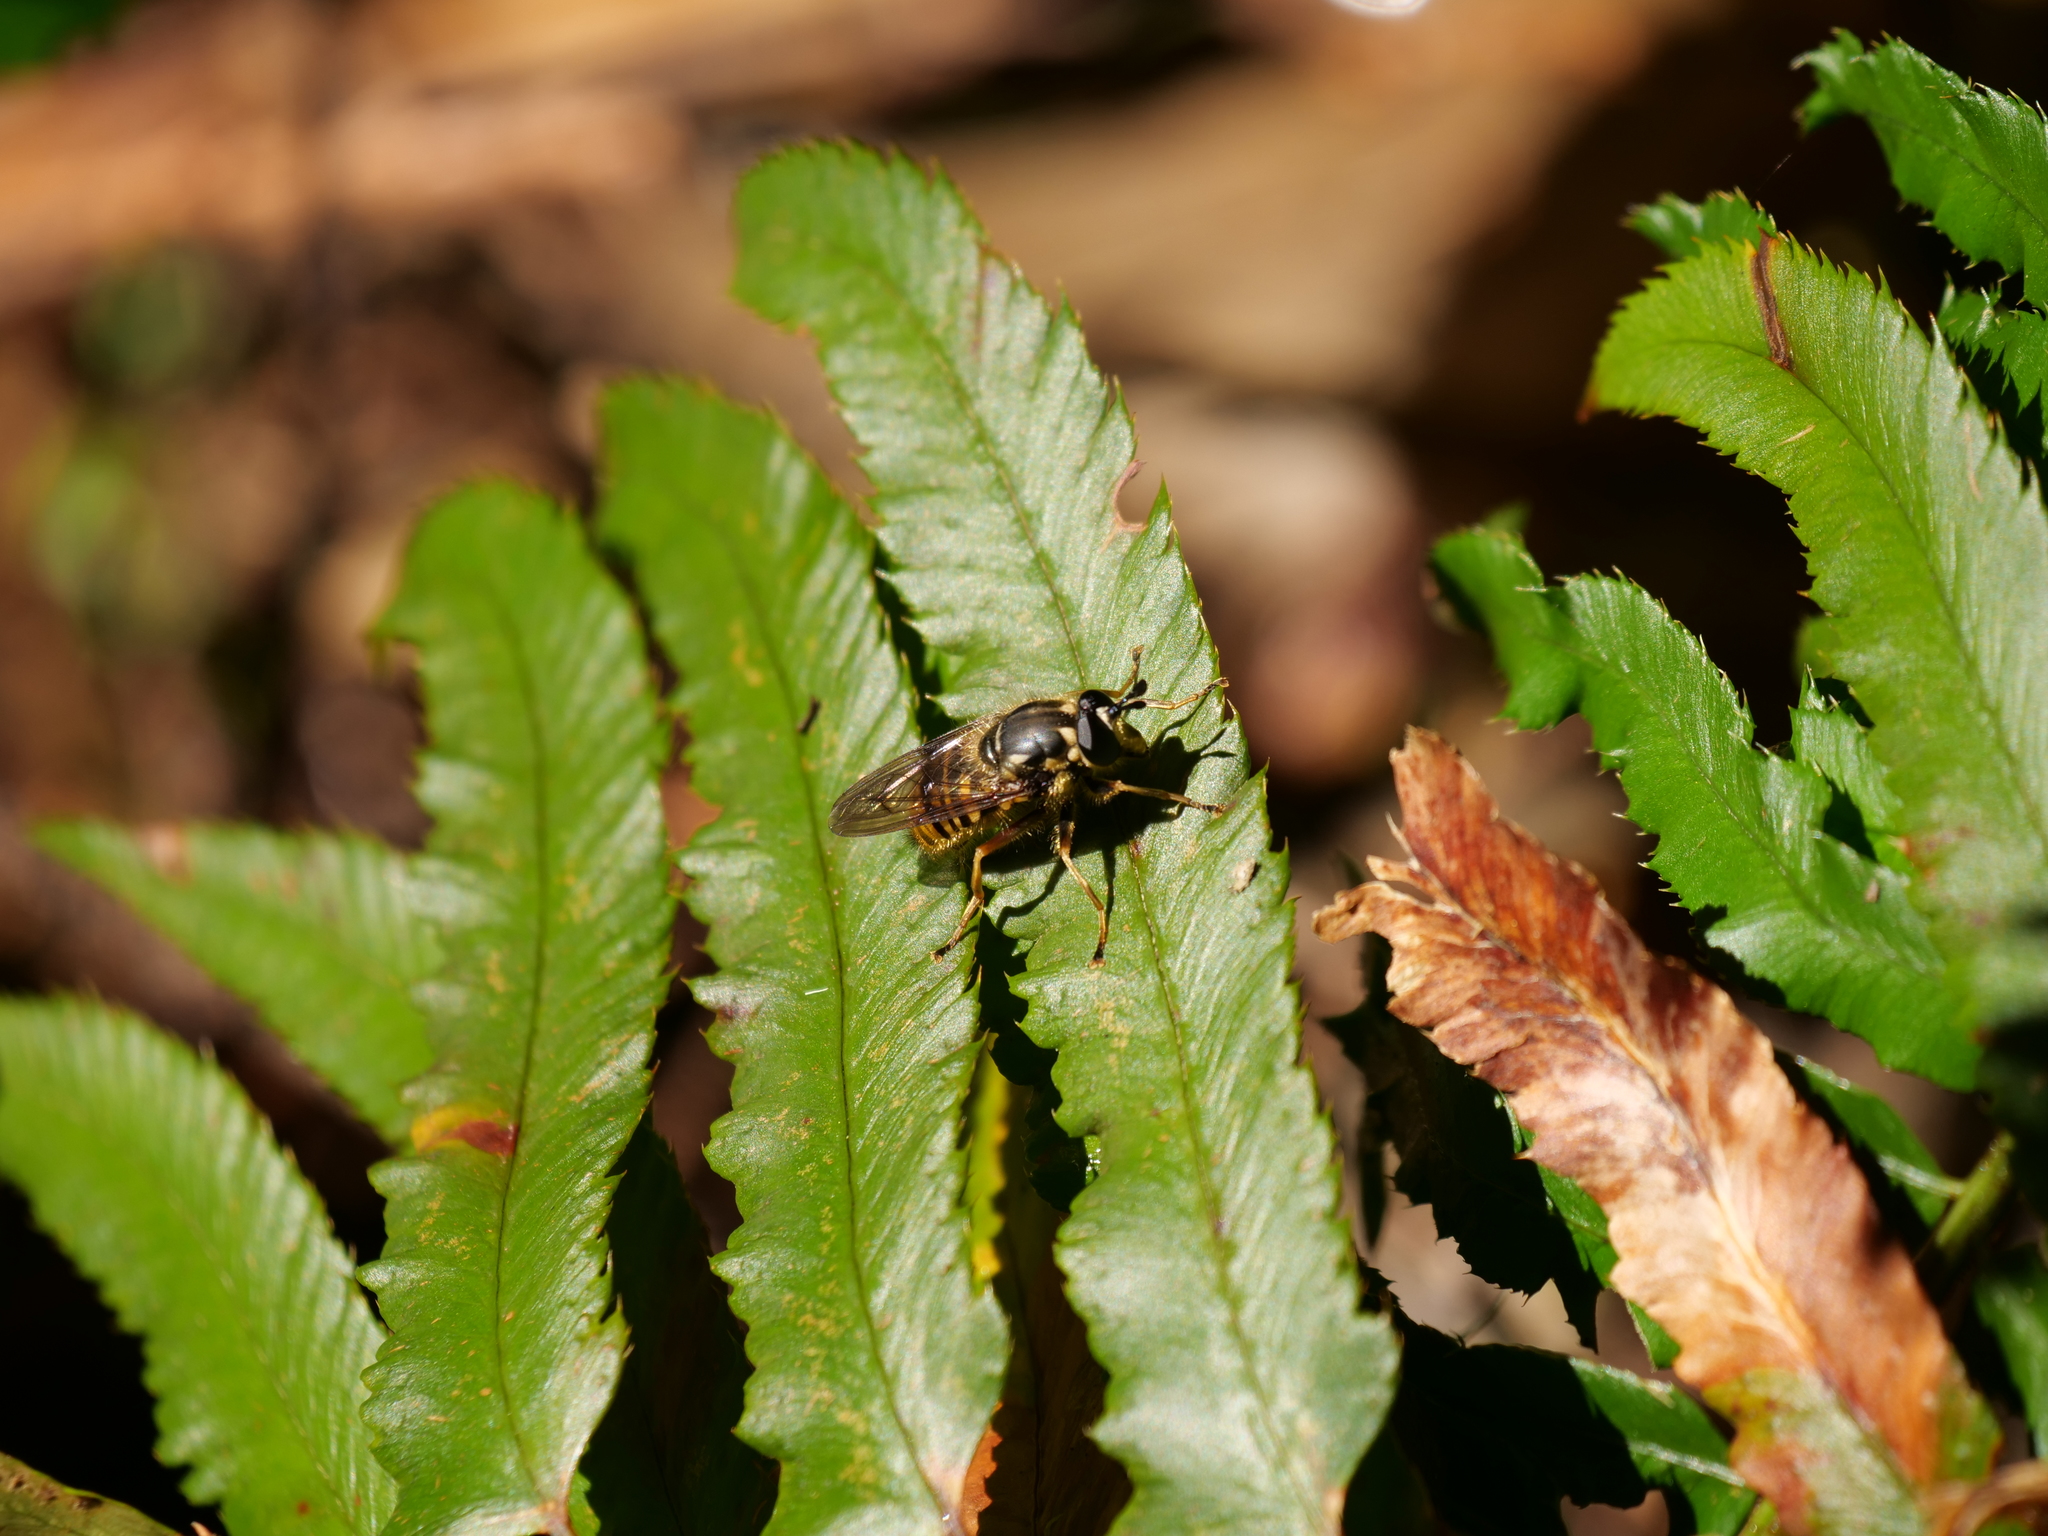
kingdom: Animalia
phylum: Arthropoda
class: Insecta
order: Diptera
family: Syrphidae
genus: Criorhina
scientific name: Criorhina occidentalis
